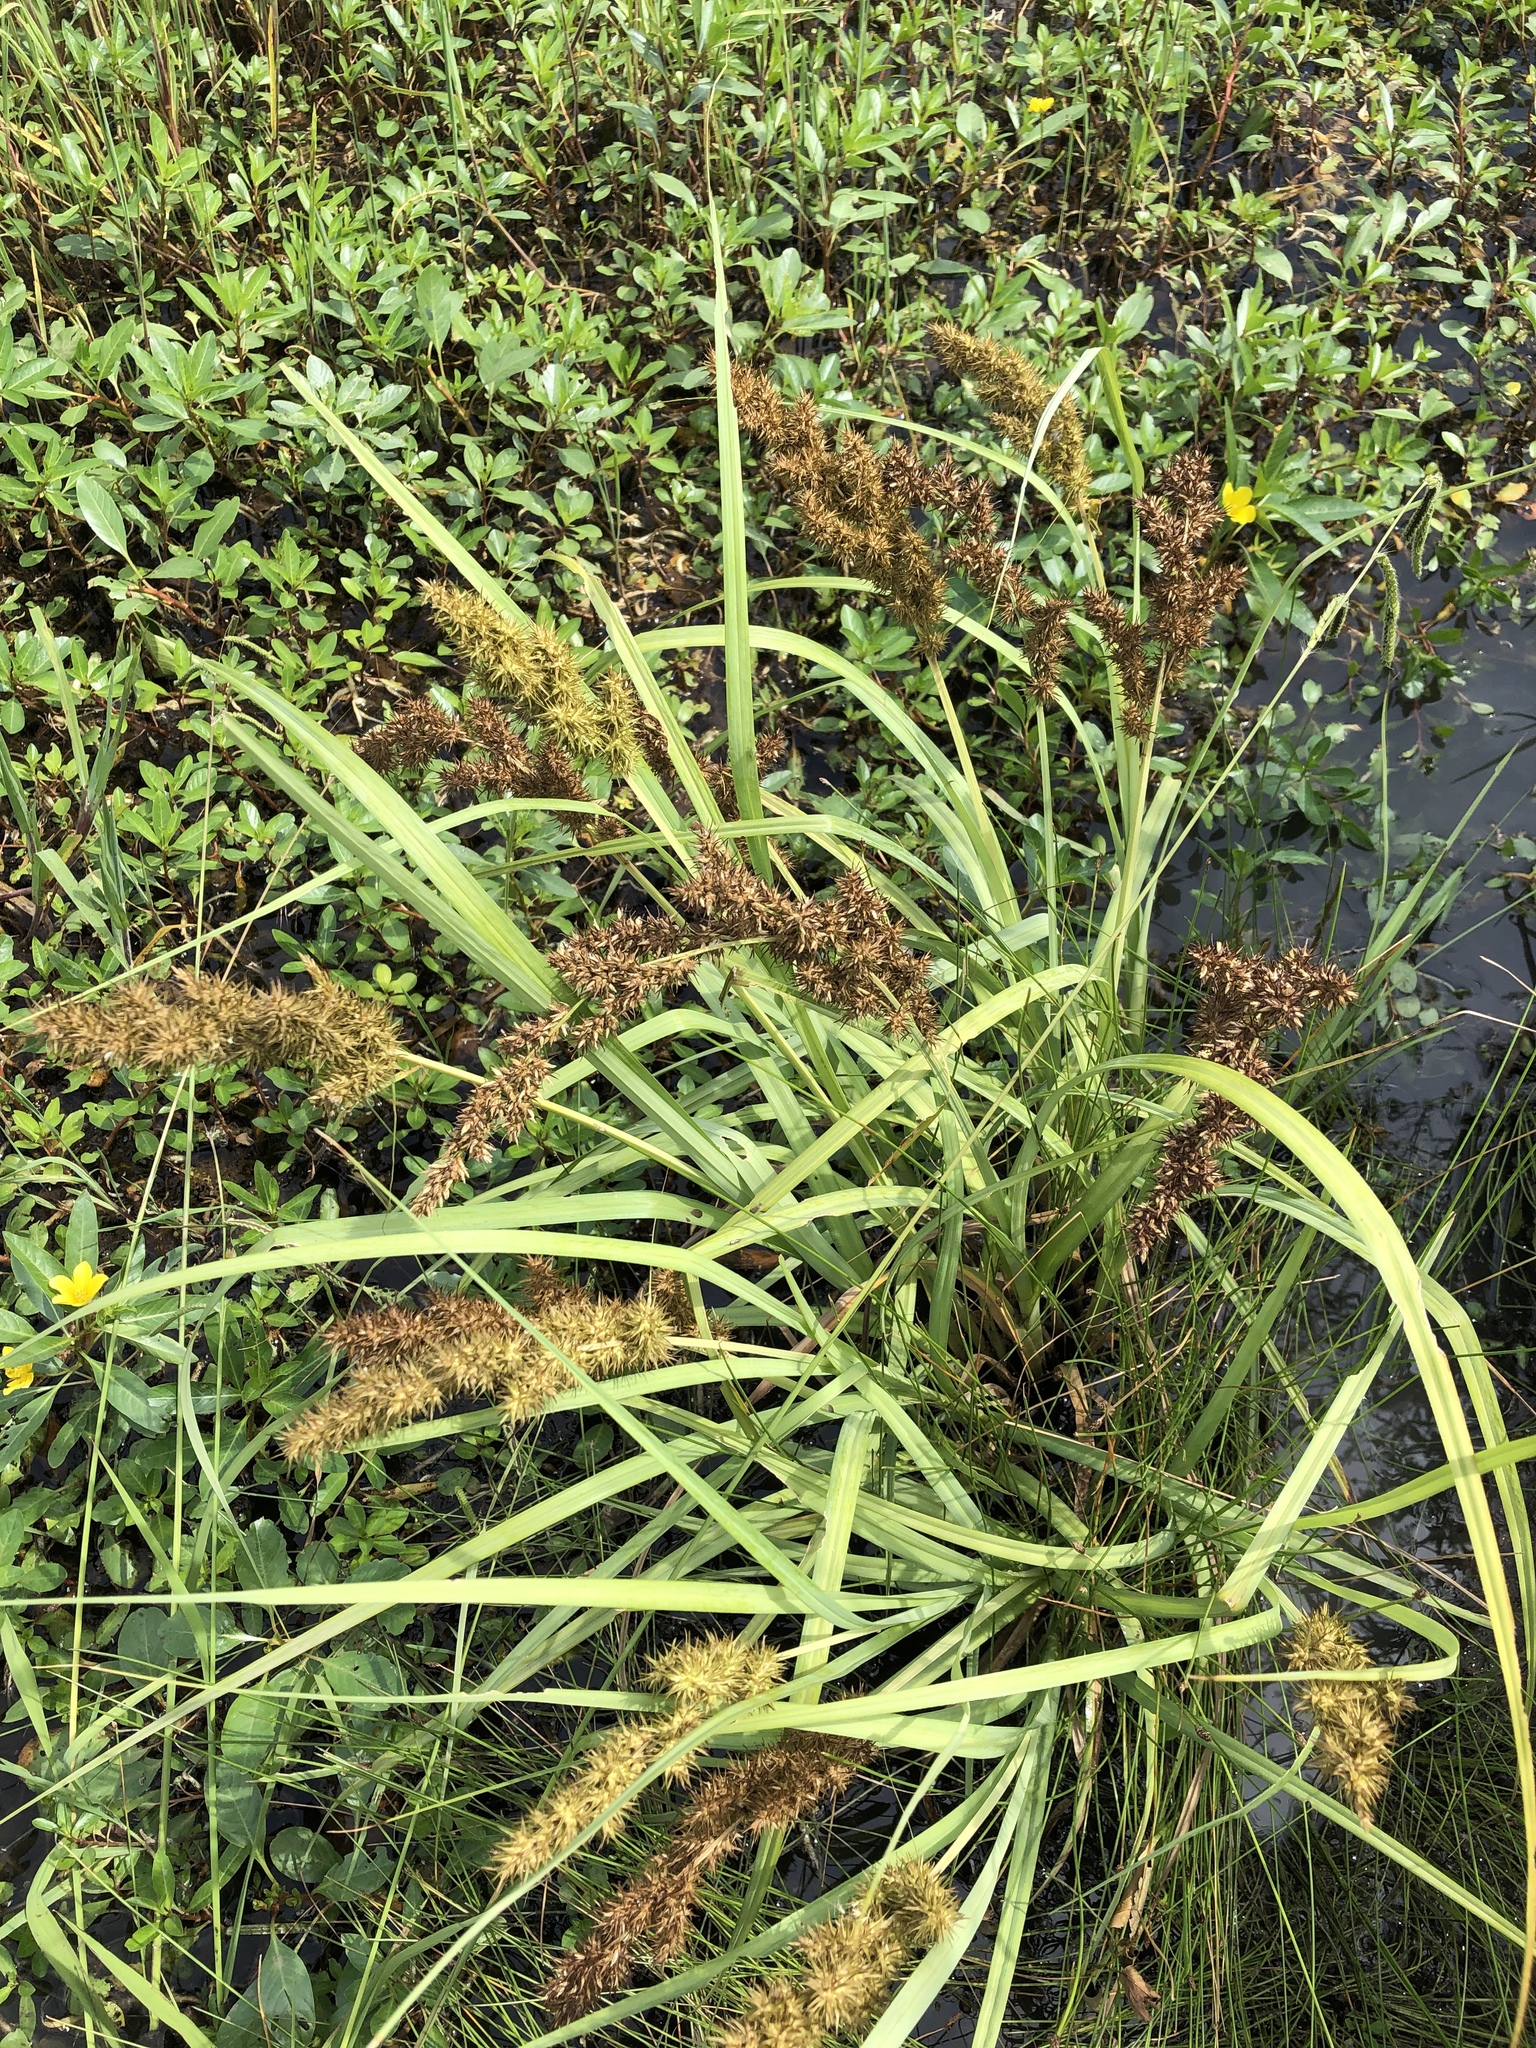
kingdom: Plantae
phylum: Tracheophyta
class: Liliopsida
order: Poales
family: Cyperaceae
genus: Carex
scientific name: Carex crus-corvi
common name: Crow-spur sedge
